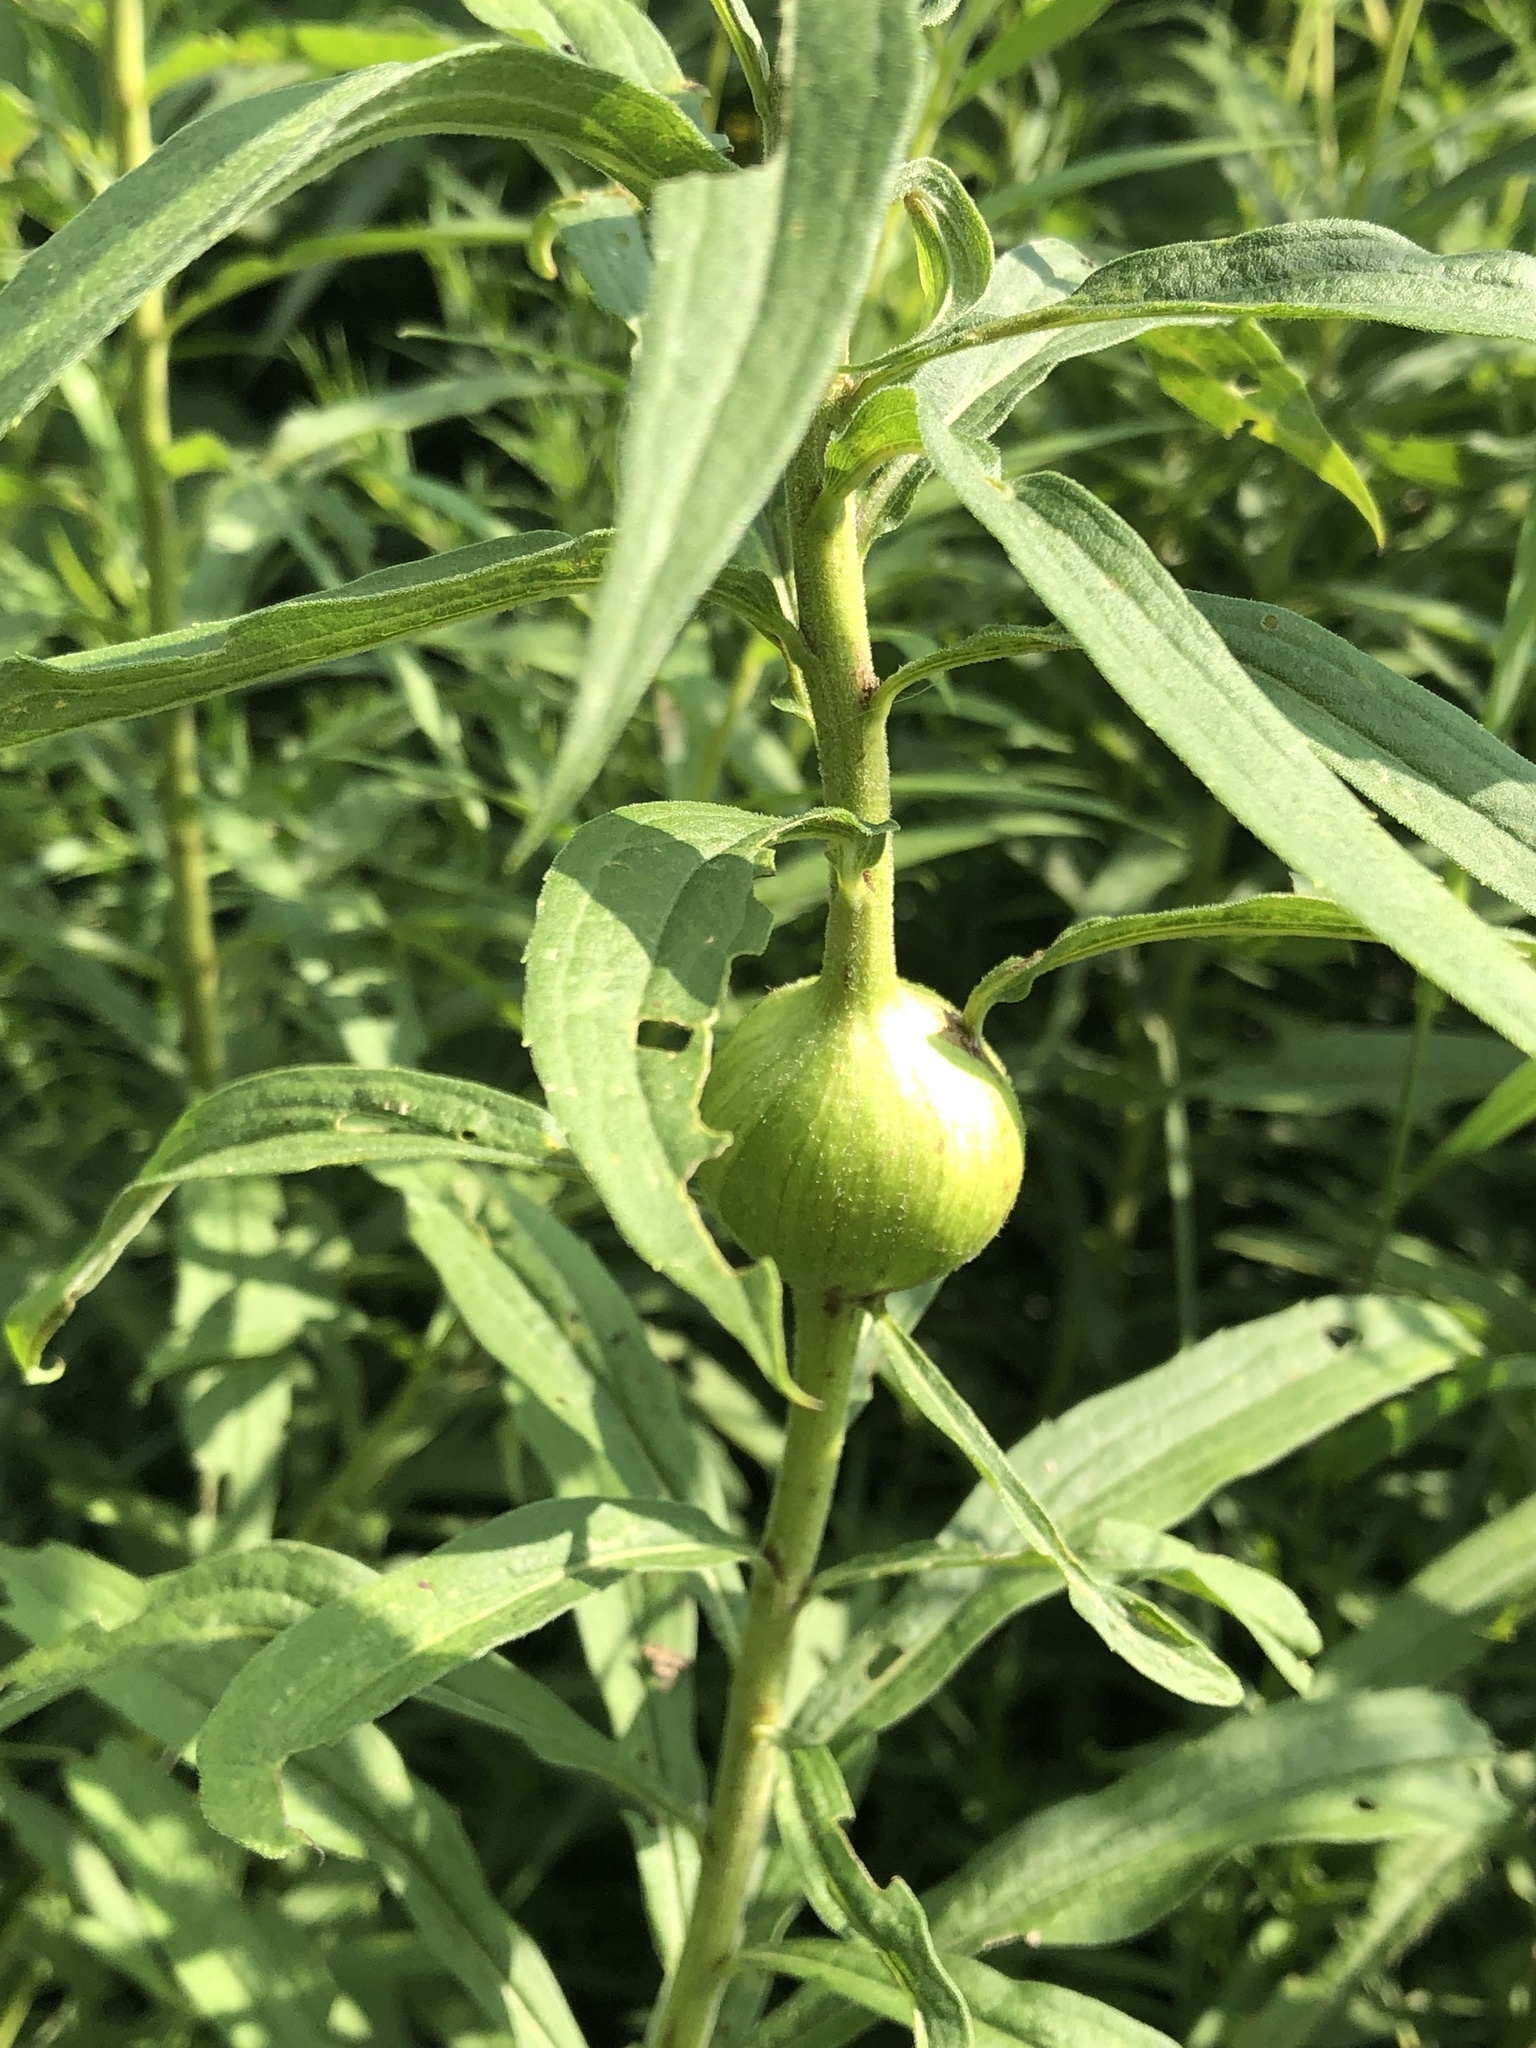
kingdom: Animalia
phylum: Arthropoda
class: Insecta
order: Diptera
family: Tephritidae
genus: Eurosta
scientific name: Eurosta solidaginis
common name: Goldenrod gall fly
